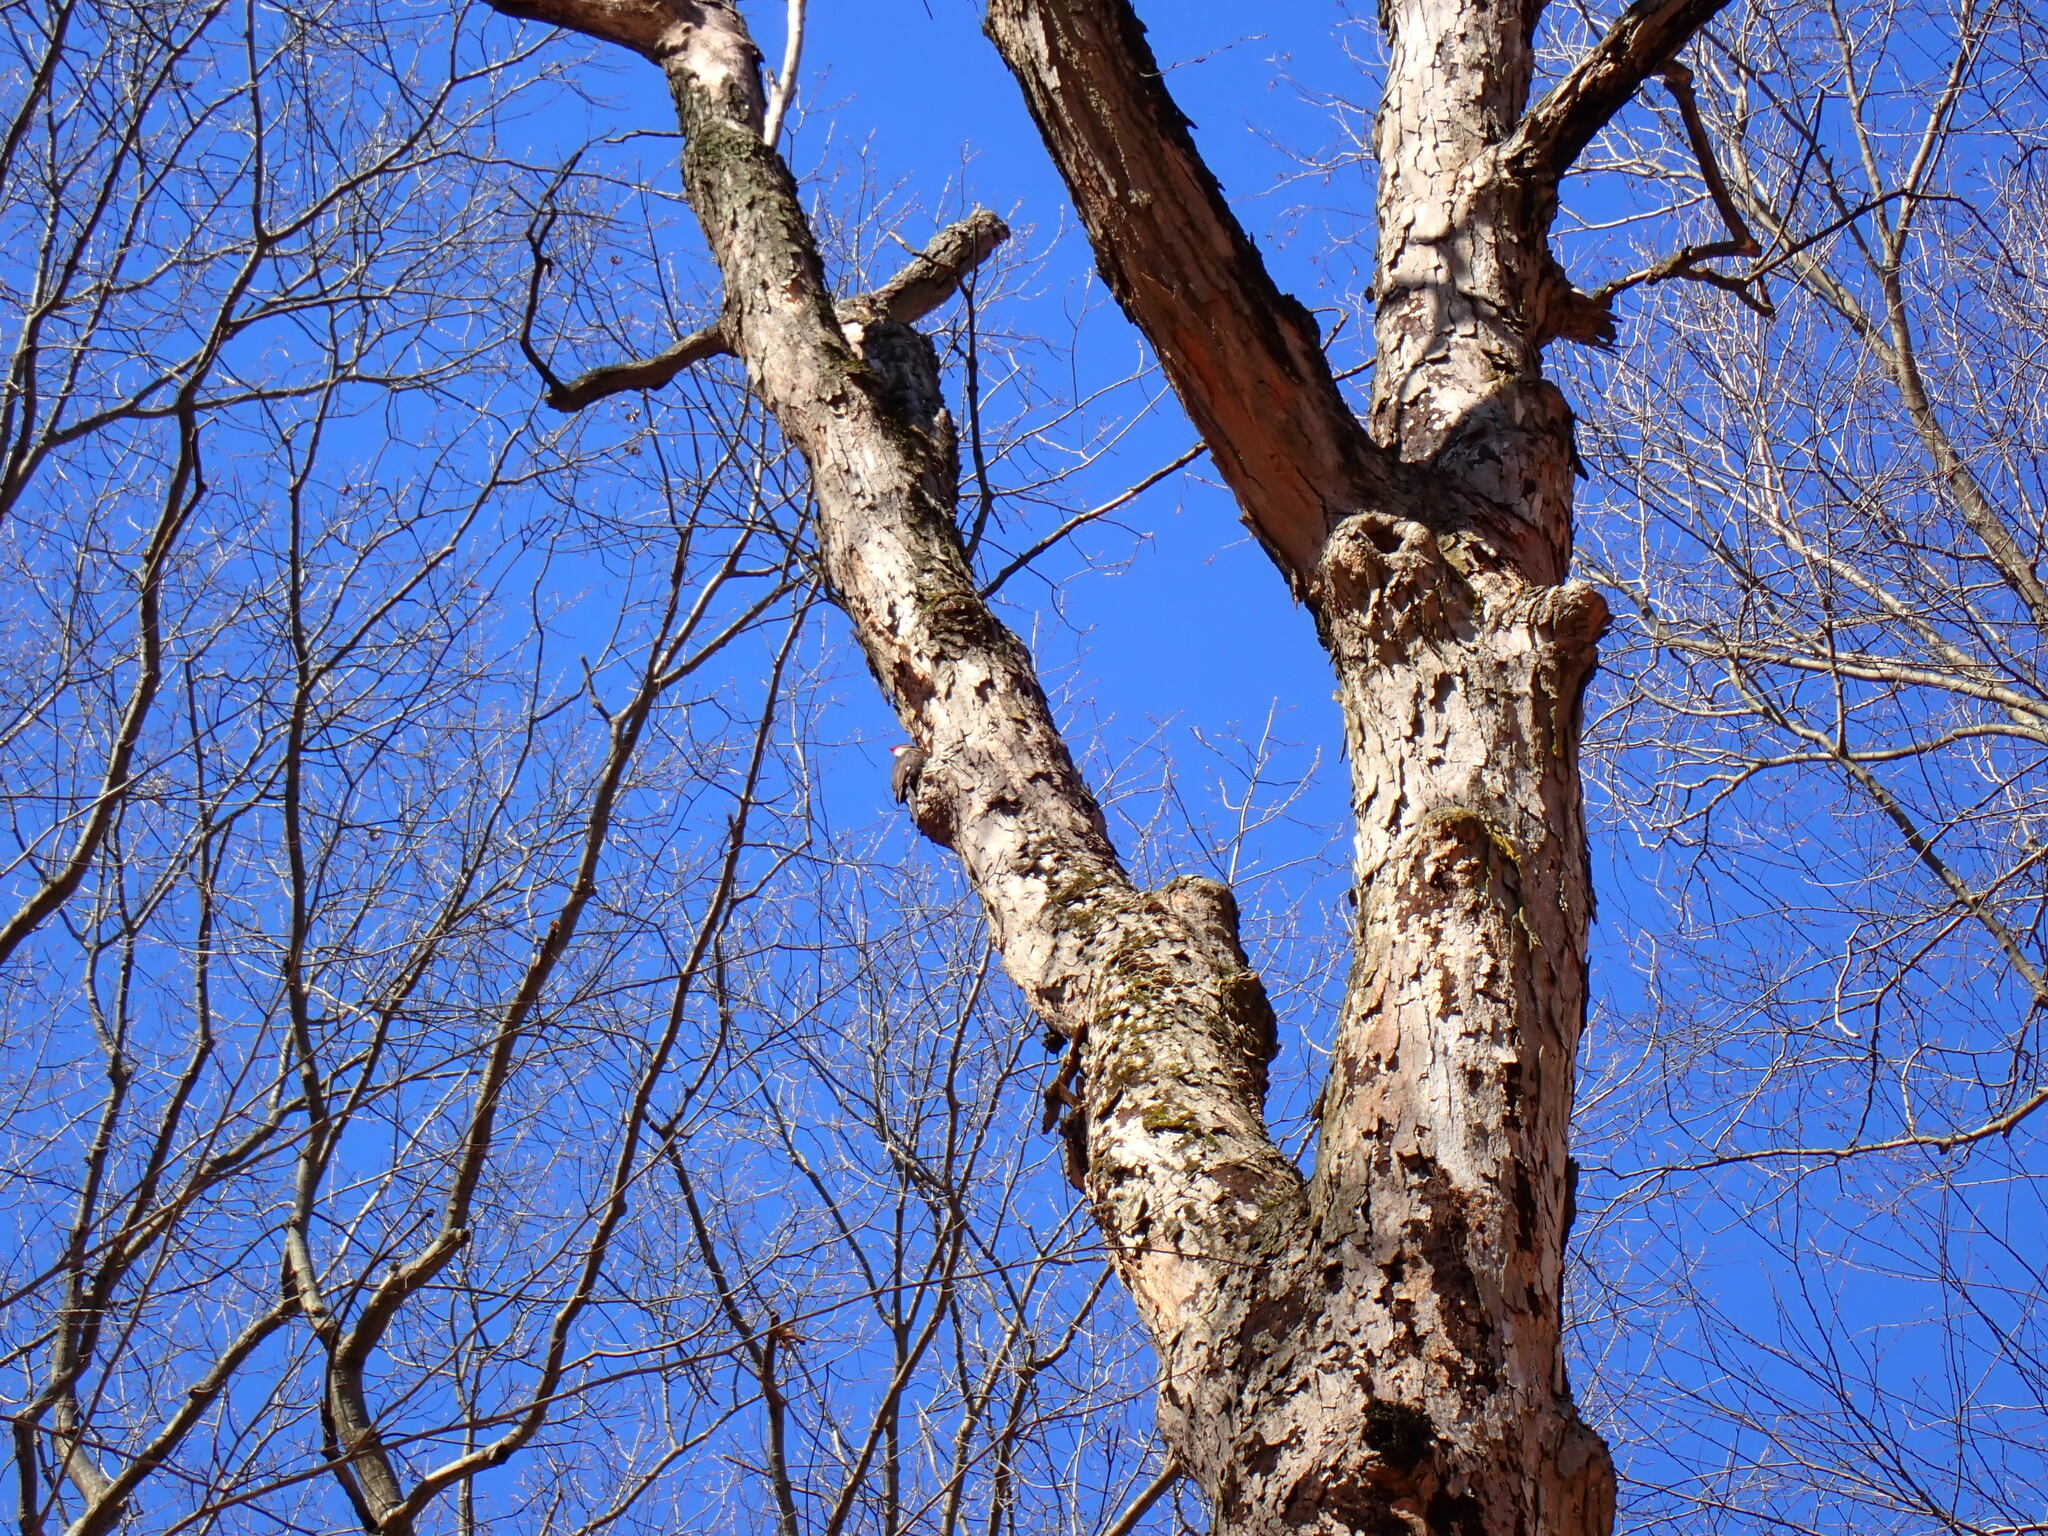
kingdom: Animalia
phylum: Chordata
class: Aves
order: Piciformes
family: Picidae
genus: Dryocopus
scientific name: Dryocopus pileatus
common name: Pileated woodpecker
